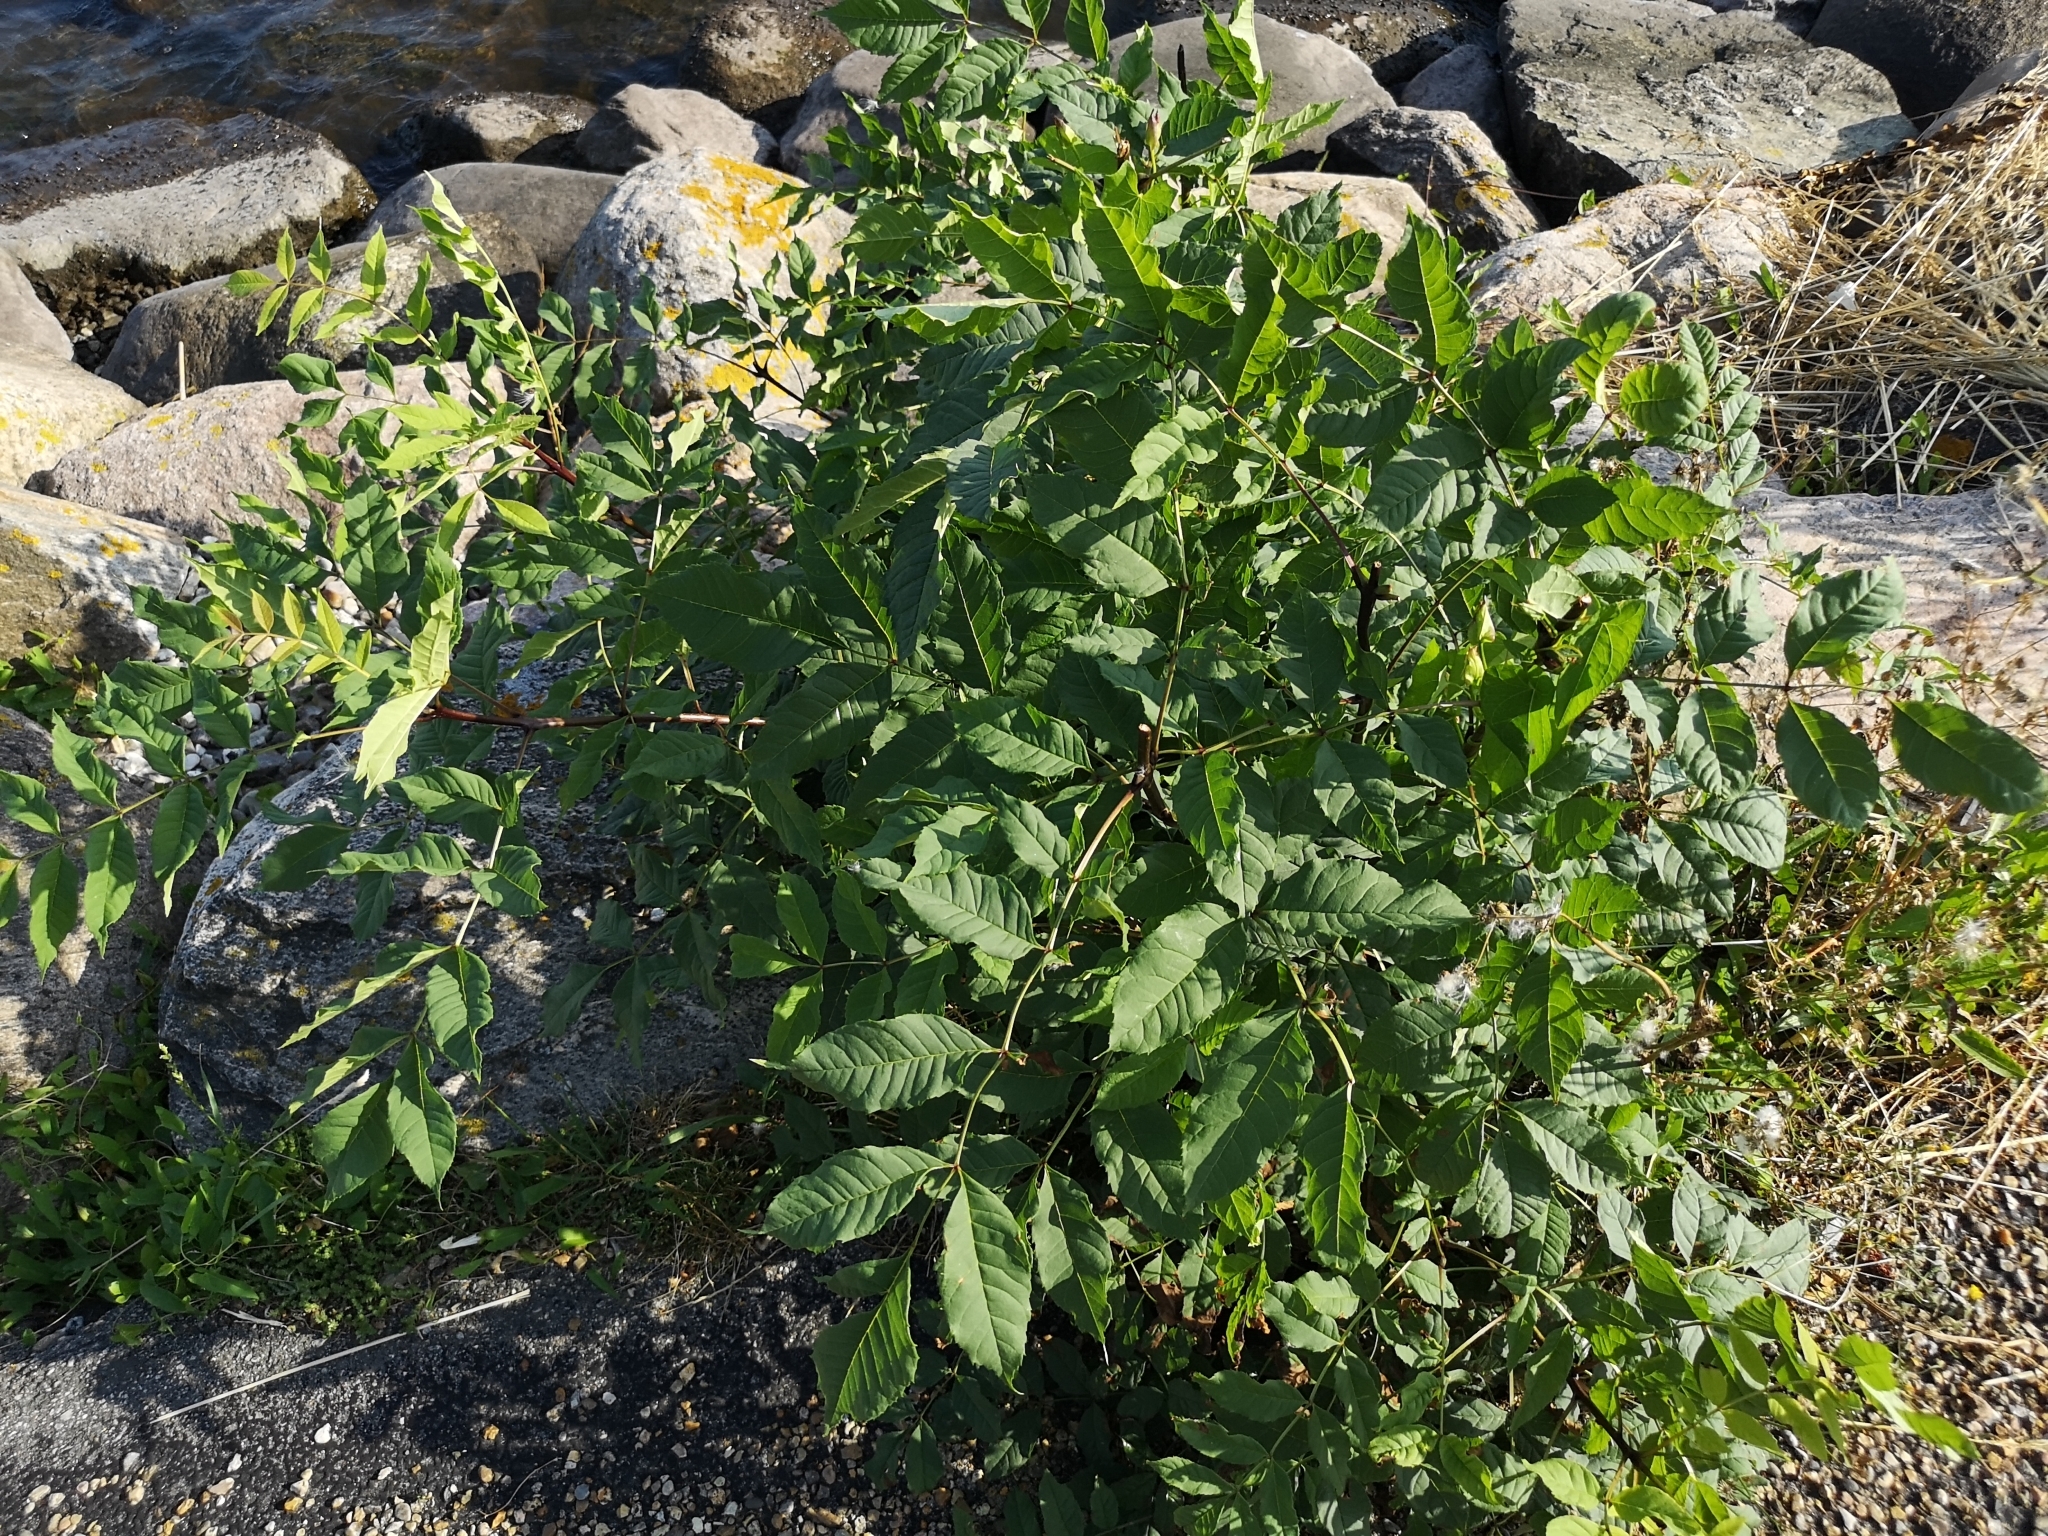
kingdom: Plantae
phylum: Tracheophyta
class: Magnoliopsida
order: Lamiales
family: Oleaceae
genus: Fraxinus
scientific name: Fraxinus excelsior
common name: European ash
